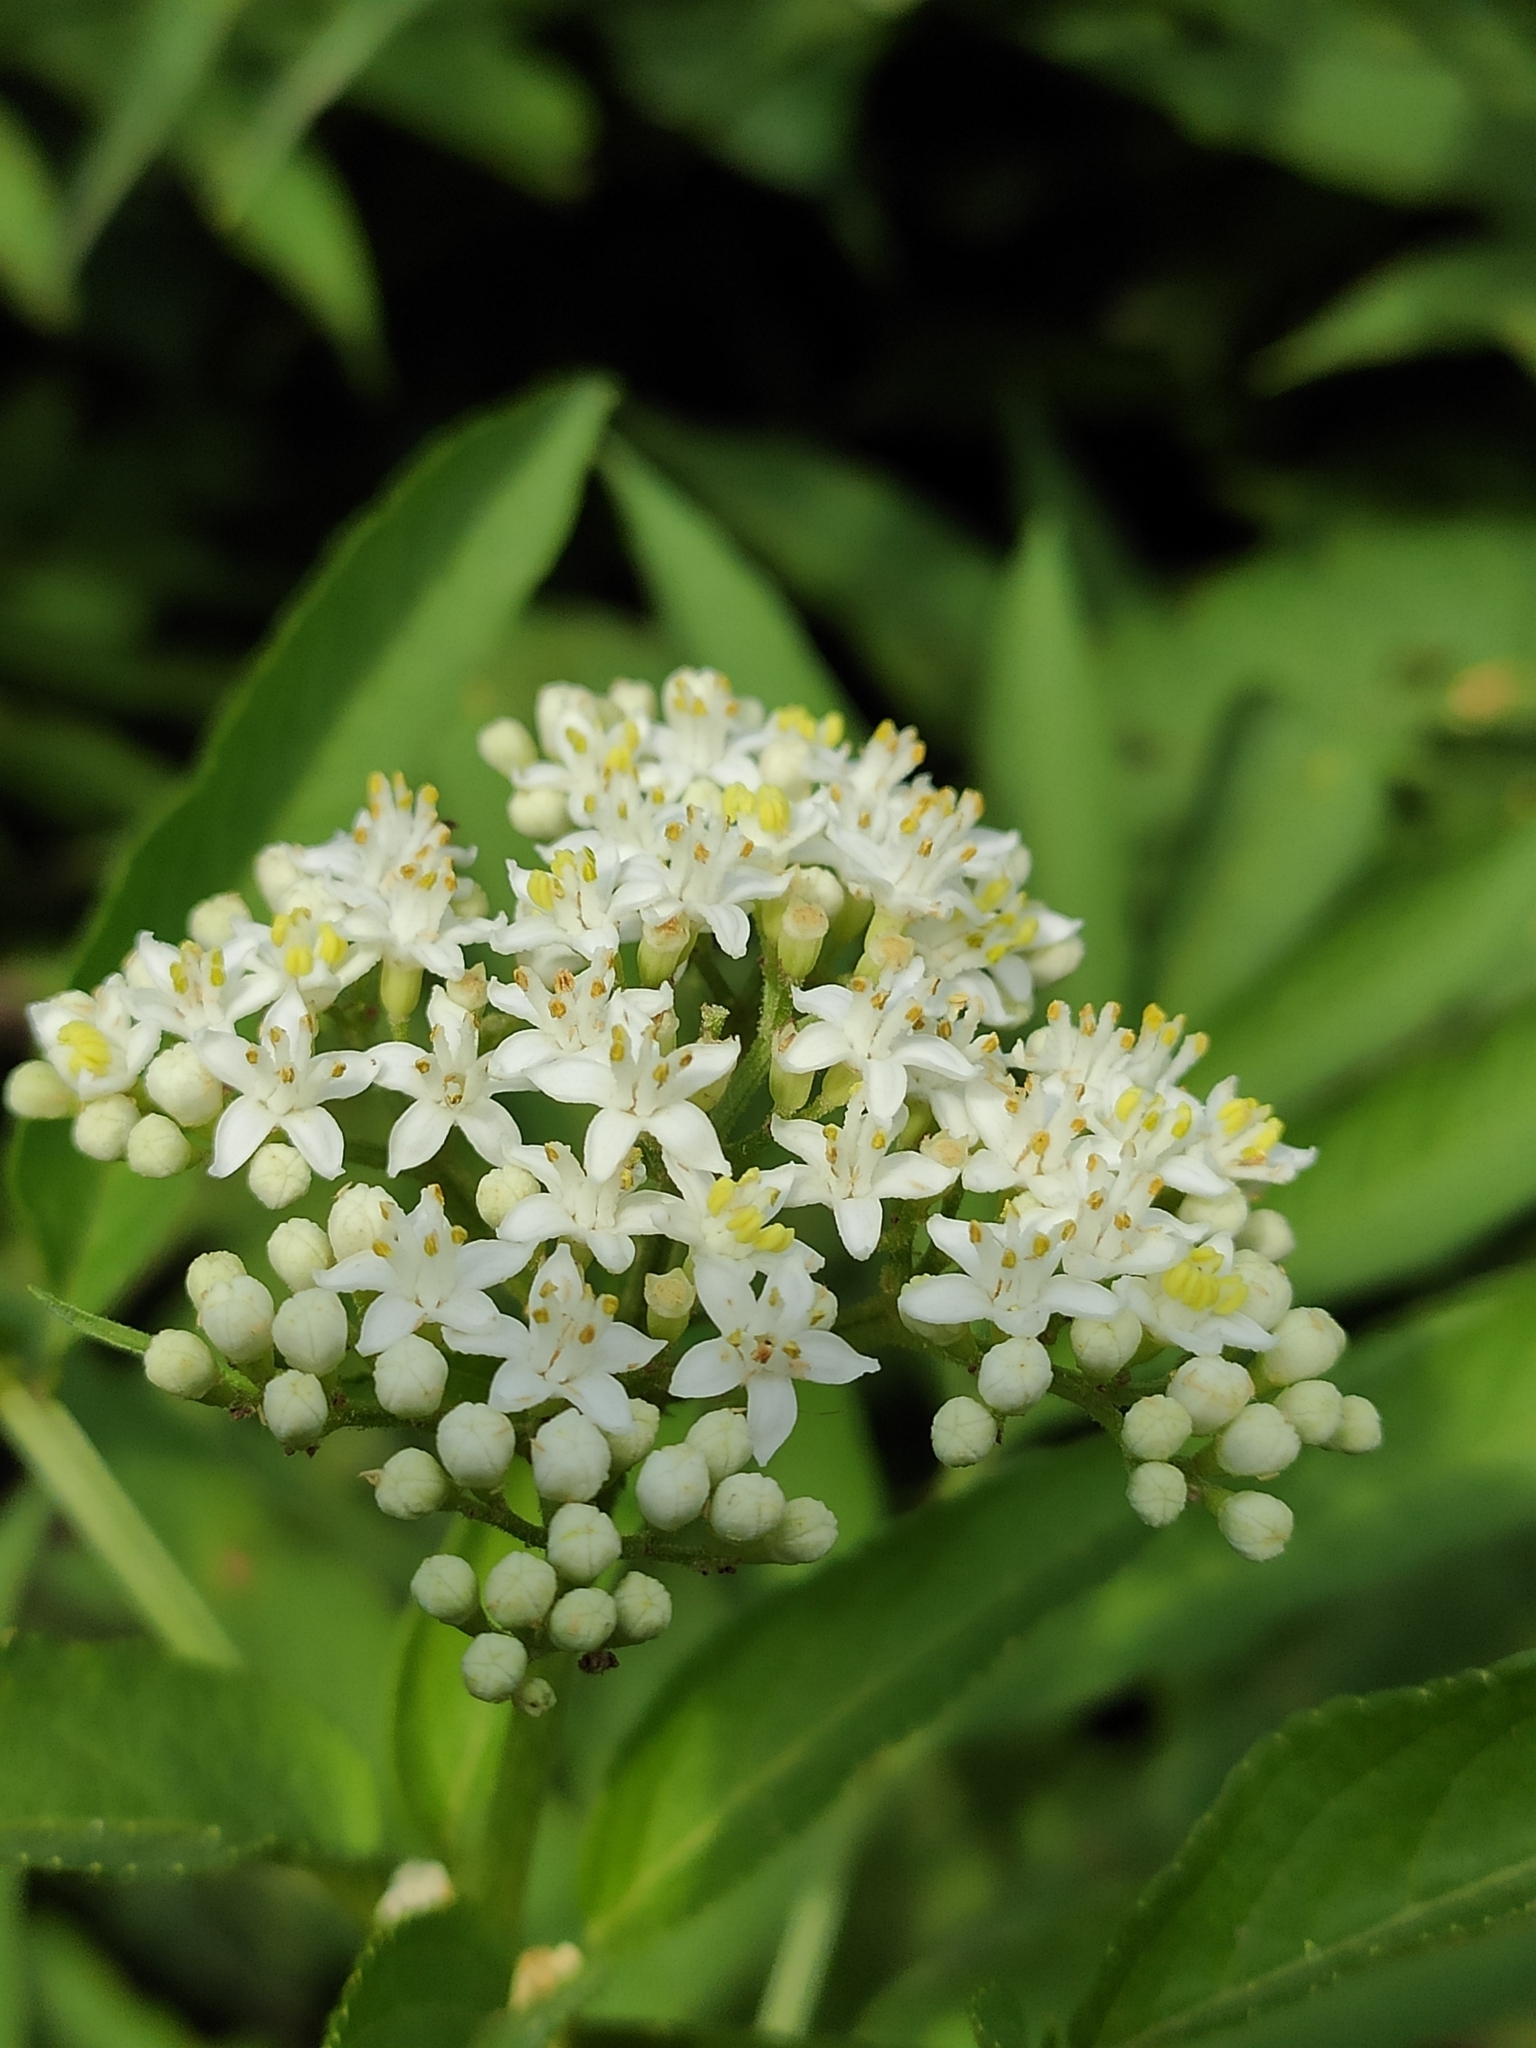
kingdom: Plantae
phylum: Tracheophyta
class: Magnoliopsida
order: Dipsacales
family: Viburnaceae
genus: Sambucus
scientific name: Sambucus ebulus
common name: Dwarf elder
